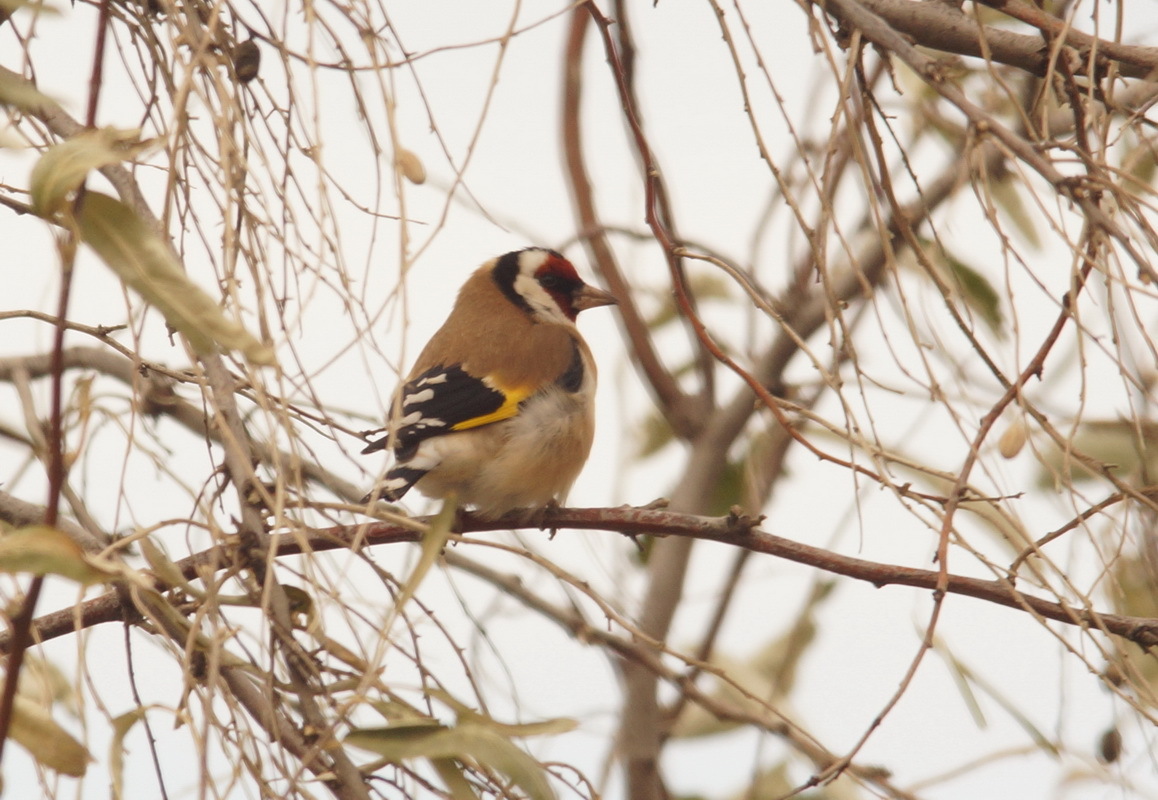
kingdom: Animalia
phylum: Chordata
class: Aves
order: Passeriformes
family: Fringillidae
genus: Carduelis
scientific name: Carduelis carduelis
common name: European goldfinch
